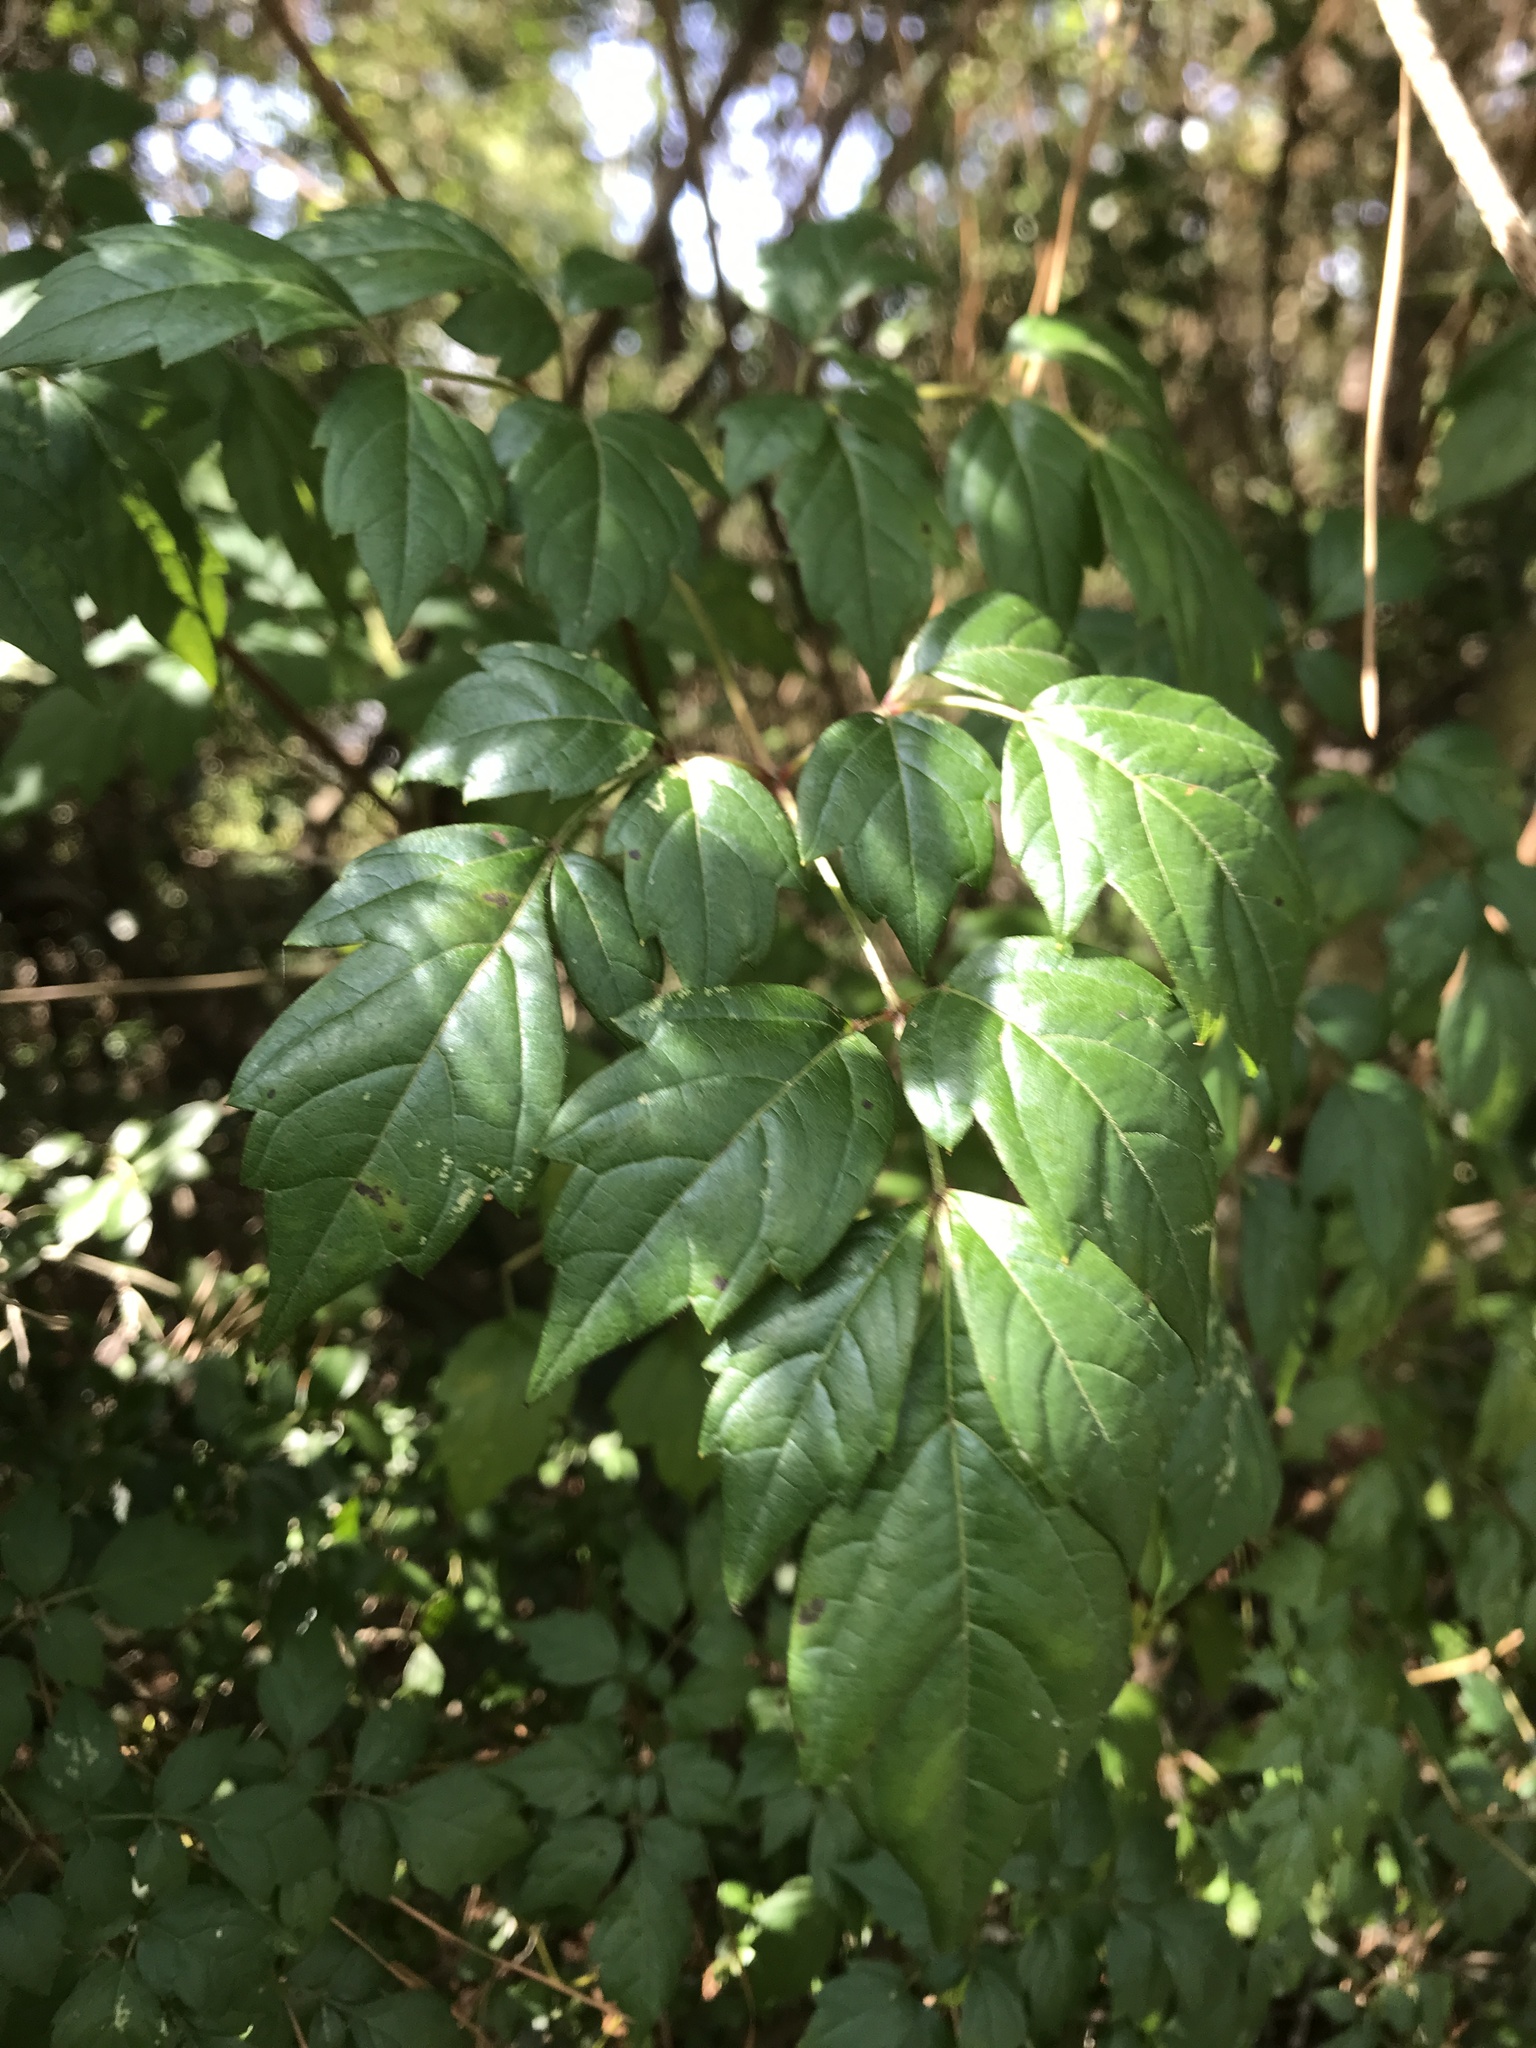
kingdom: Plantae
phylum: Tracheophyta
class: Magnoliopsida
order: Lamiales
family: Bignoniaceae
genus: Campsis
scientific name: Campsis radicans
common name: Trumpet-creeper
